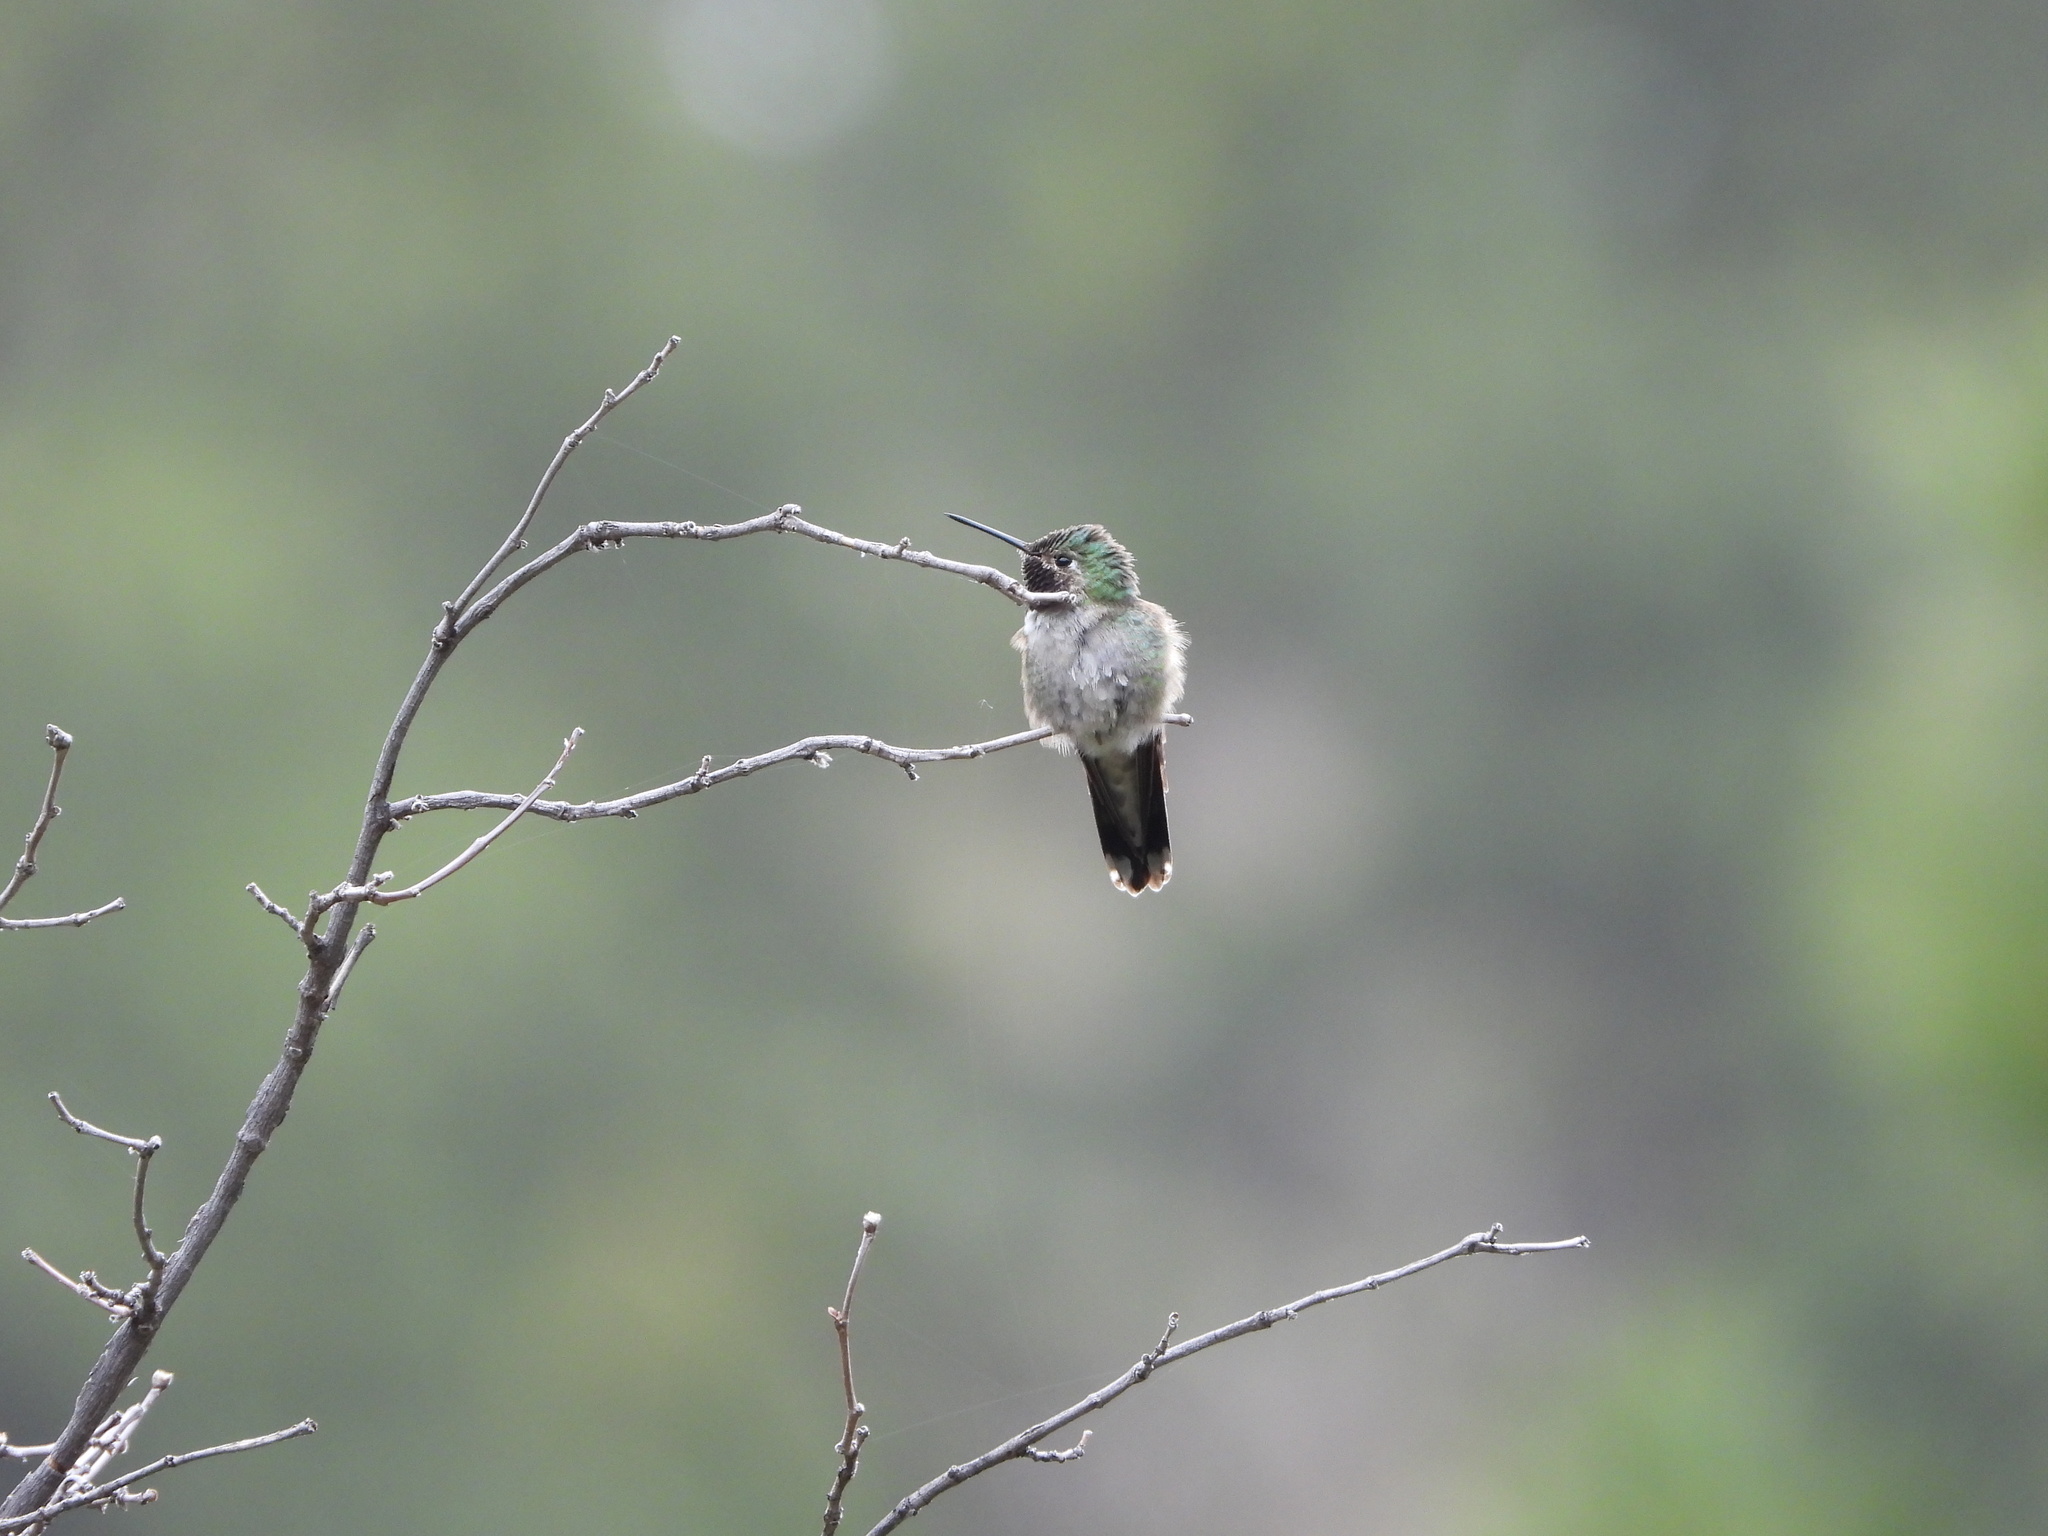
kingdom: Animalia
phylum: Chordata
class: Aves
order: Apodiformes
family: Trochilidae
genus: Selasphorus
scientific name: Selasphorus platycercus
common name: Broad-tailed hummingbird
